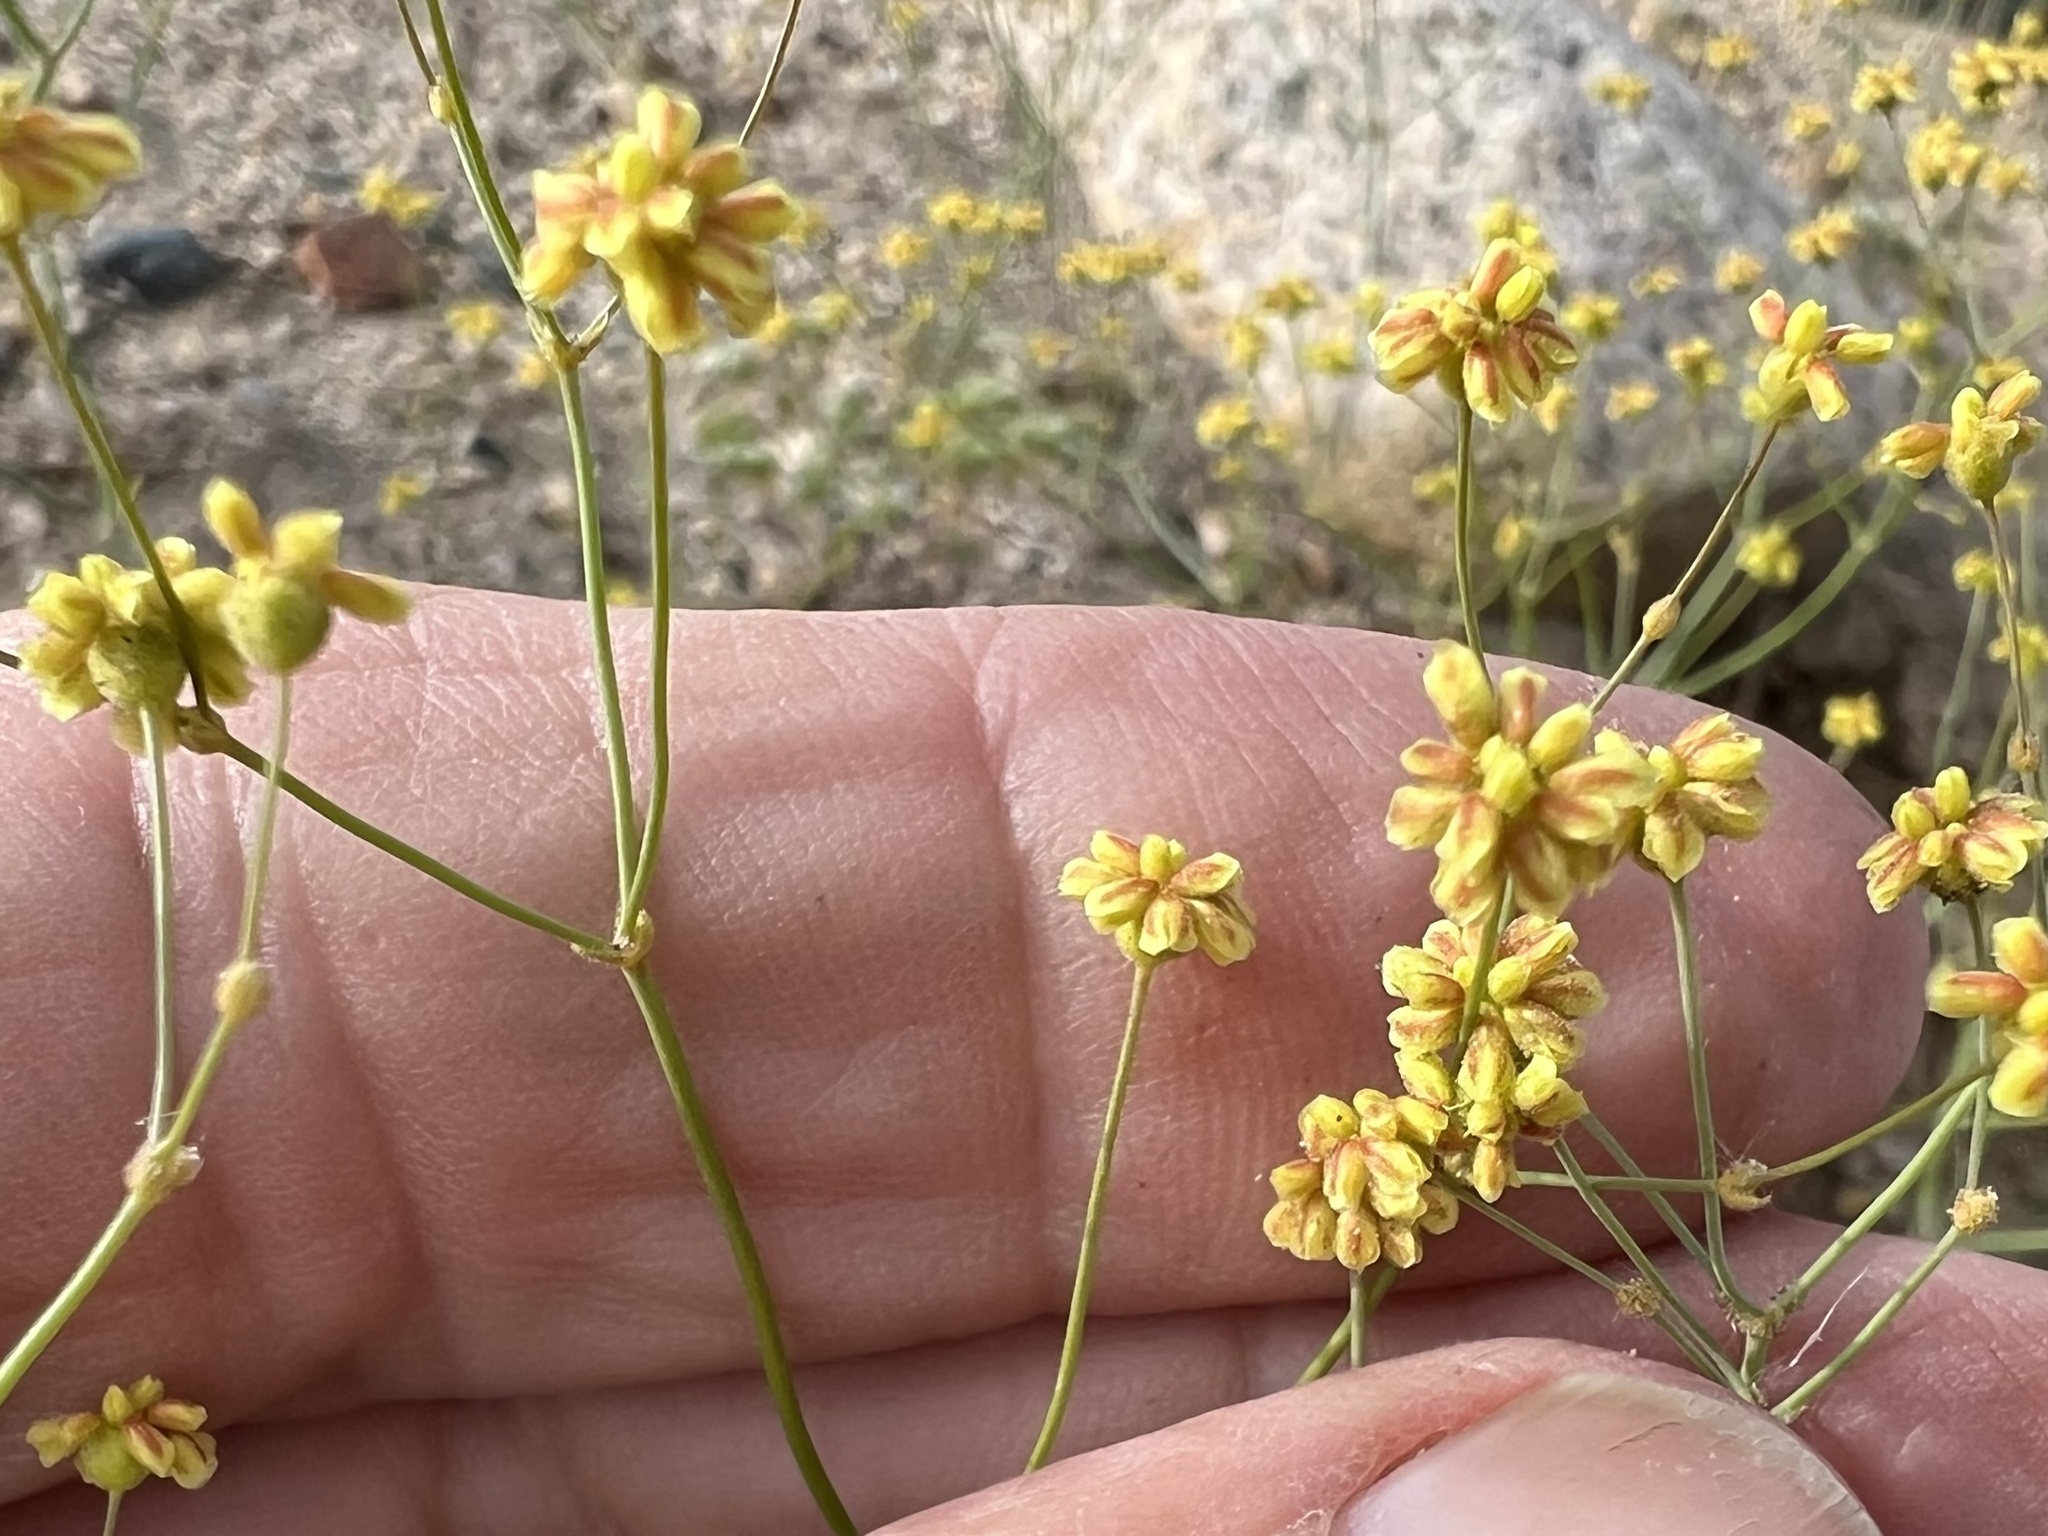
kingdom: Plantae
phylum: Tracheophyta
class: Magnoliopsida
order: Caryophyllales
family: Polygonaceae
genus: Eriogonum
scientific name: Eriogonum pusillum
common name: Yellow turbans
